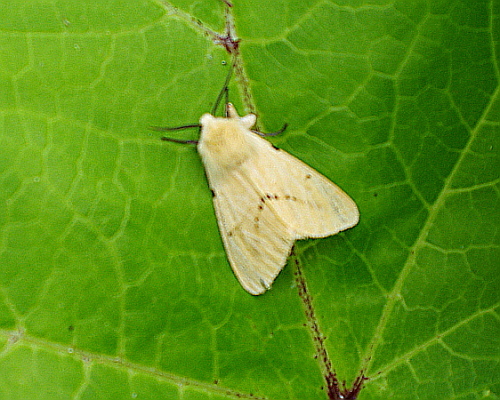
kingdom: Animalia
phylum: Arthropoda
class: Insecta
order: Lepidoptera
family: Erebidae
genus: Spilarctia
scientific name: Spilarctia lutea
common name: Buff ermine
